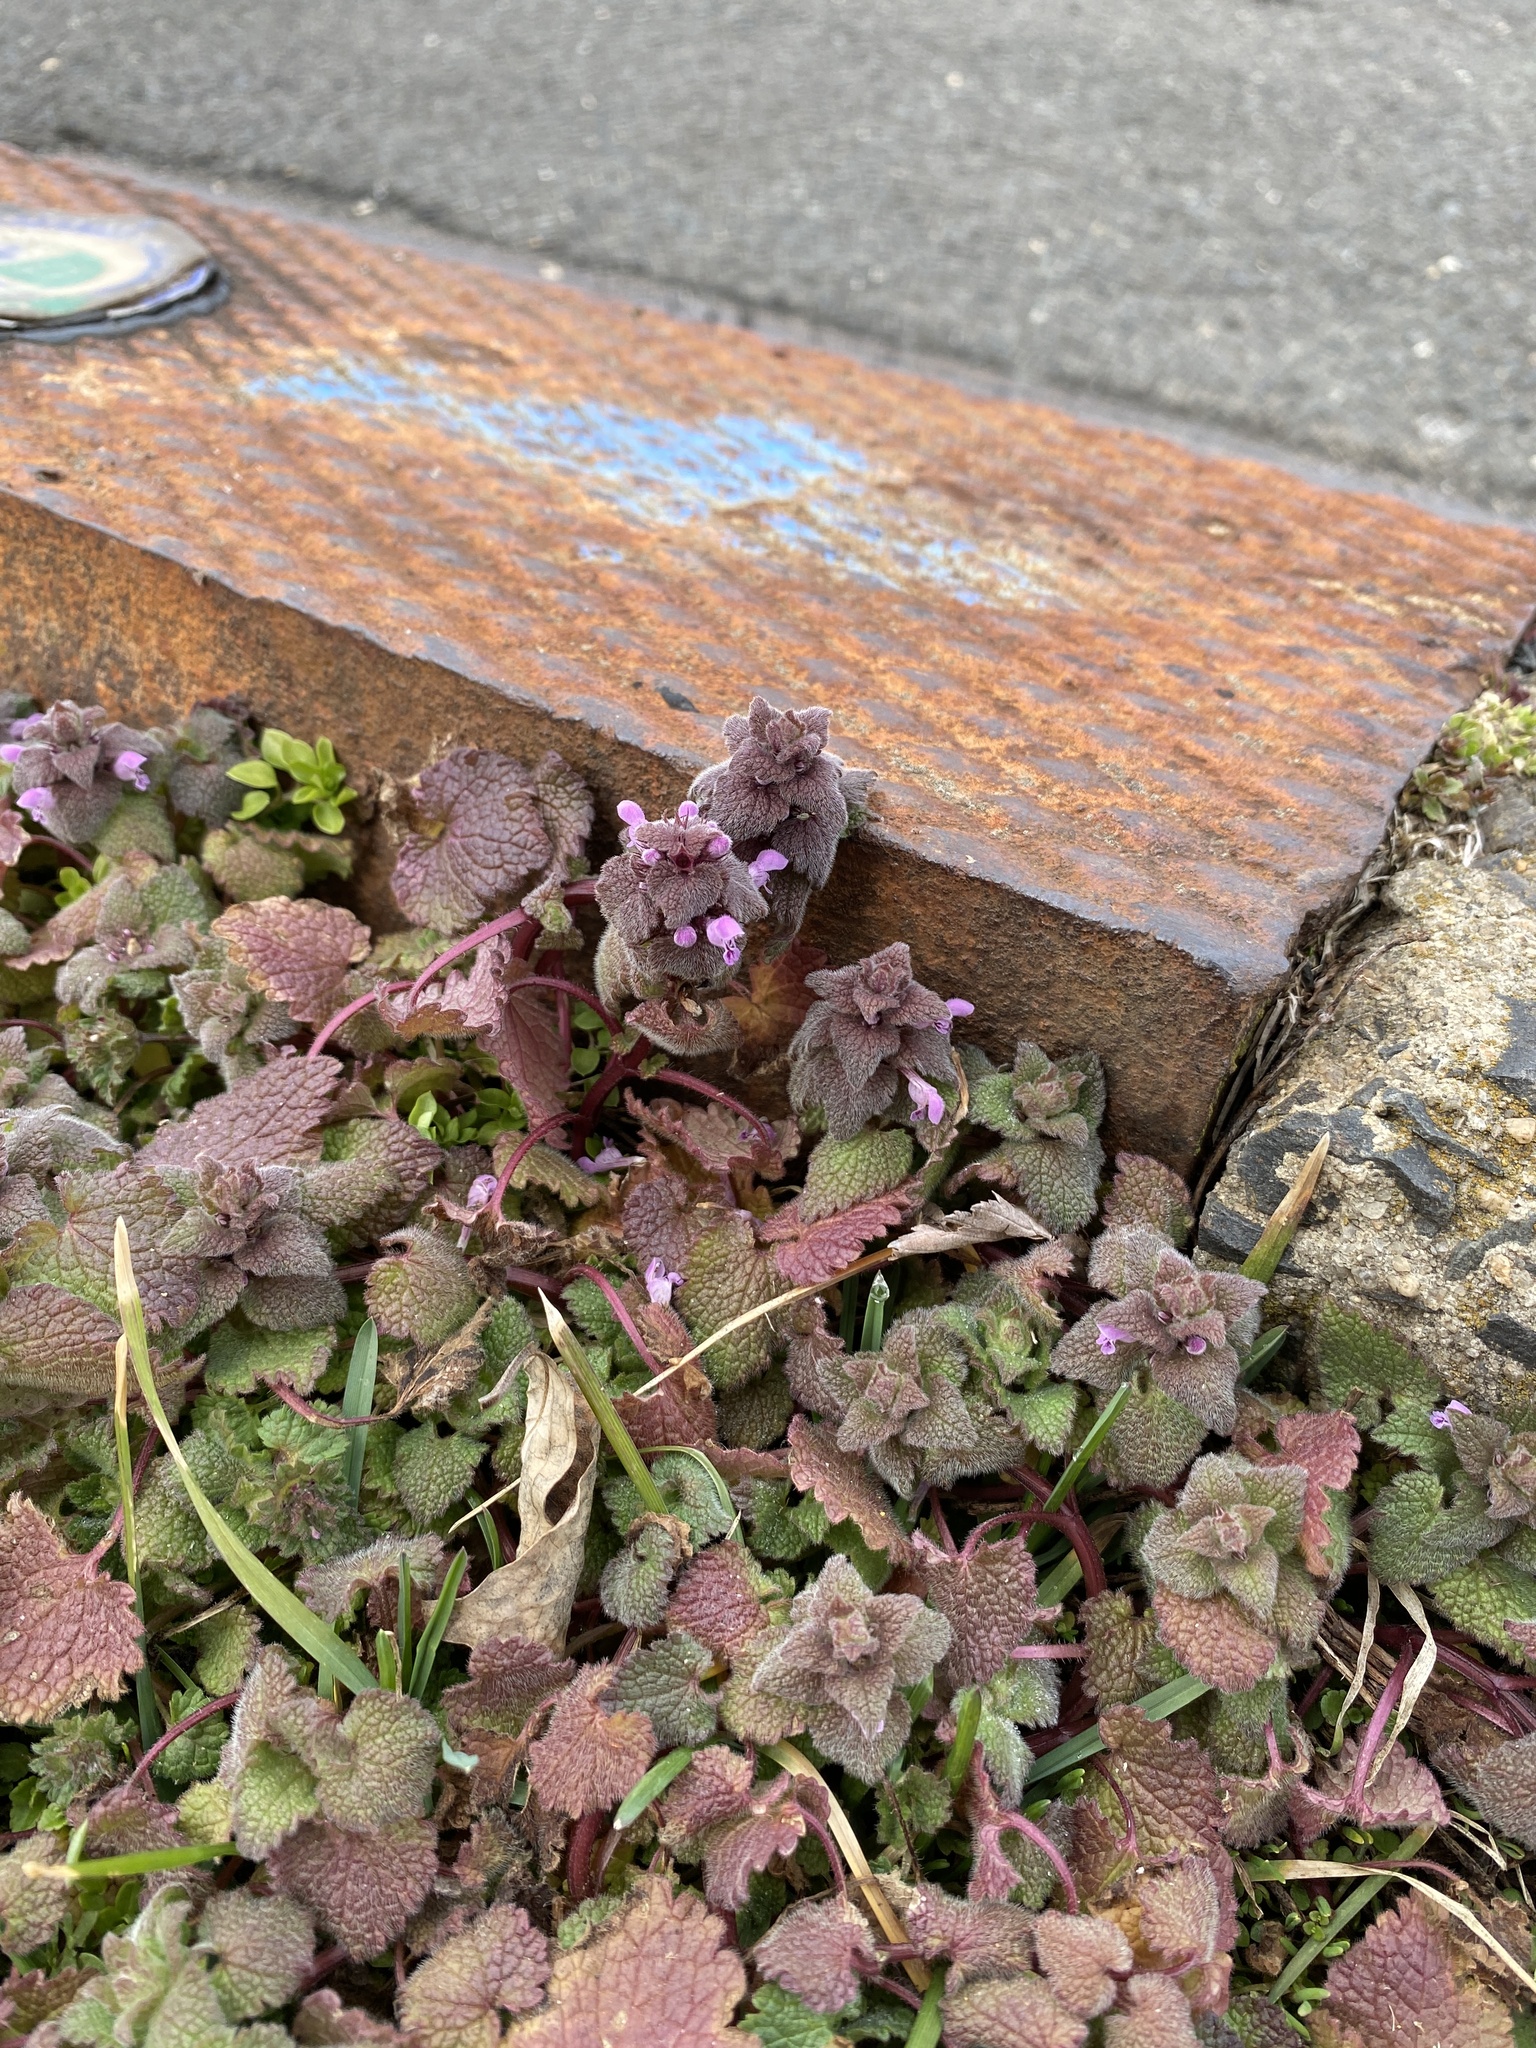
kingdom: Plantae
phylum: Tracheophyta
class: Magnoliopsida
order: Lamiales
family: Lamiaceae
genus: Lamium
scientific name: Lamium purpureum
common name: Red dead-nettle
